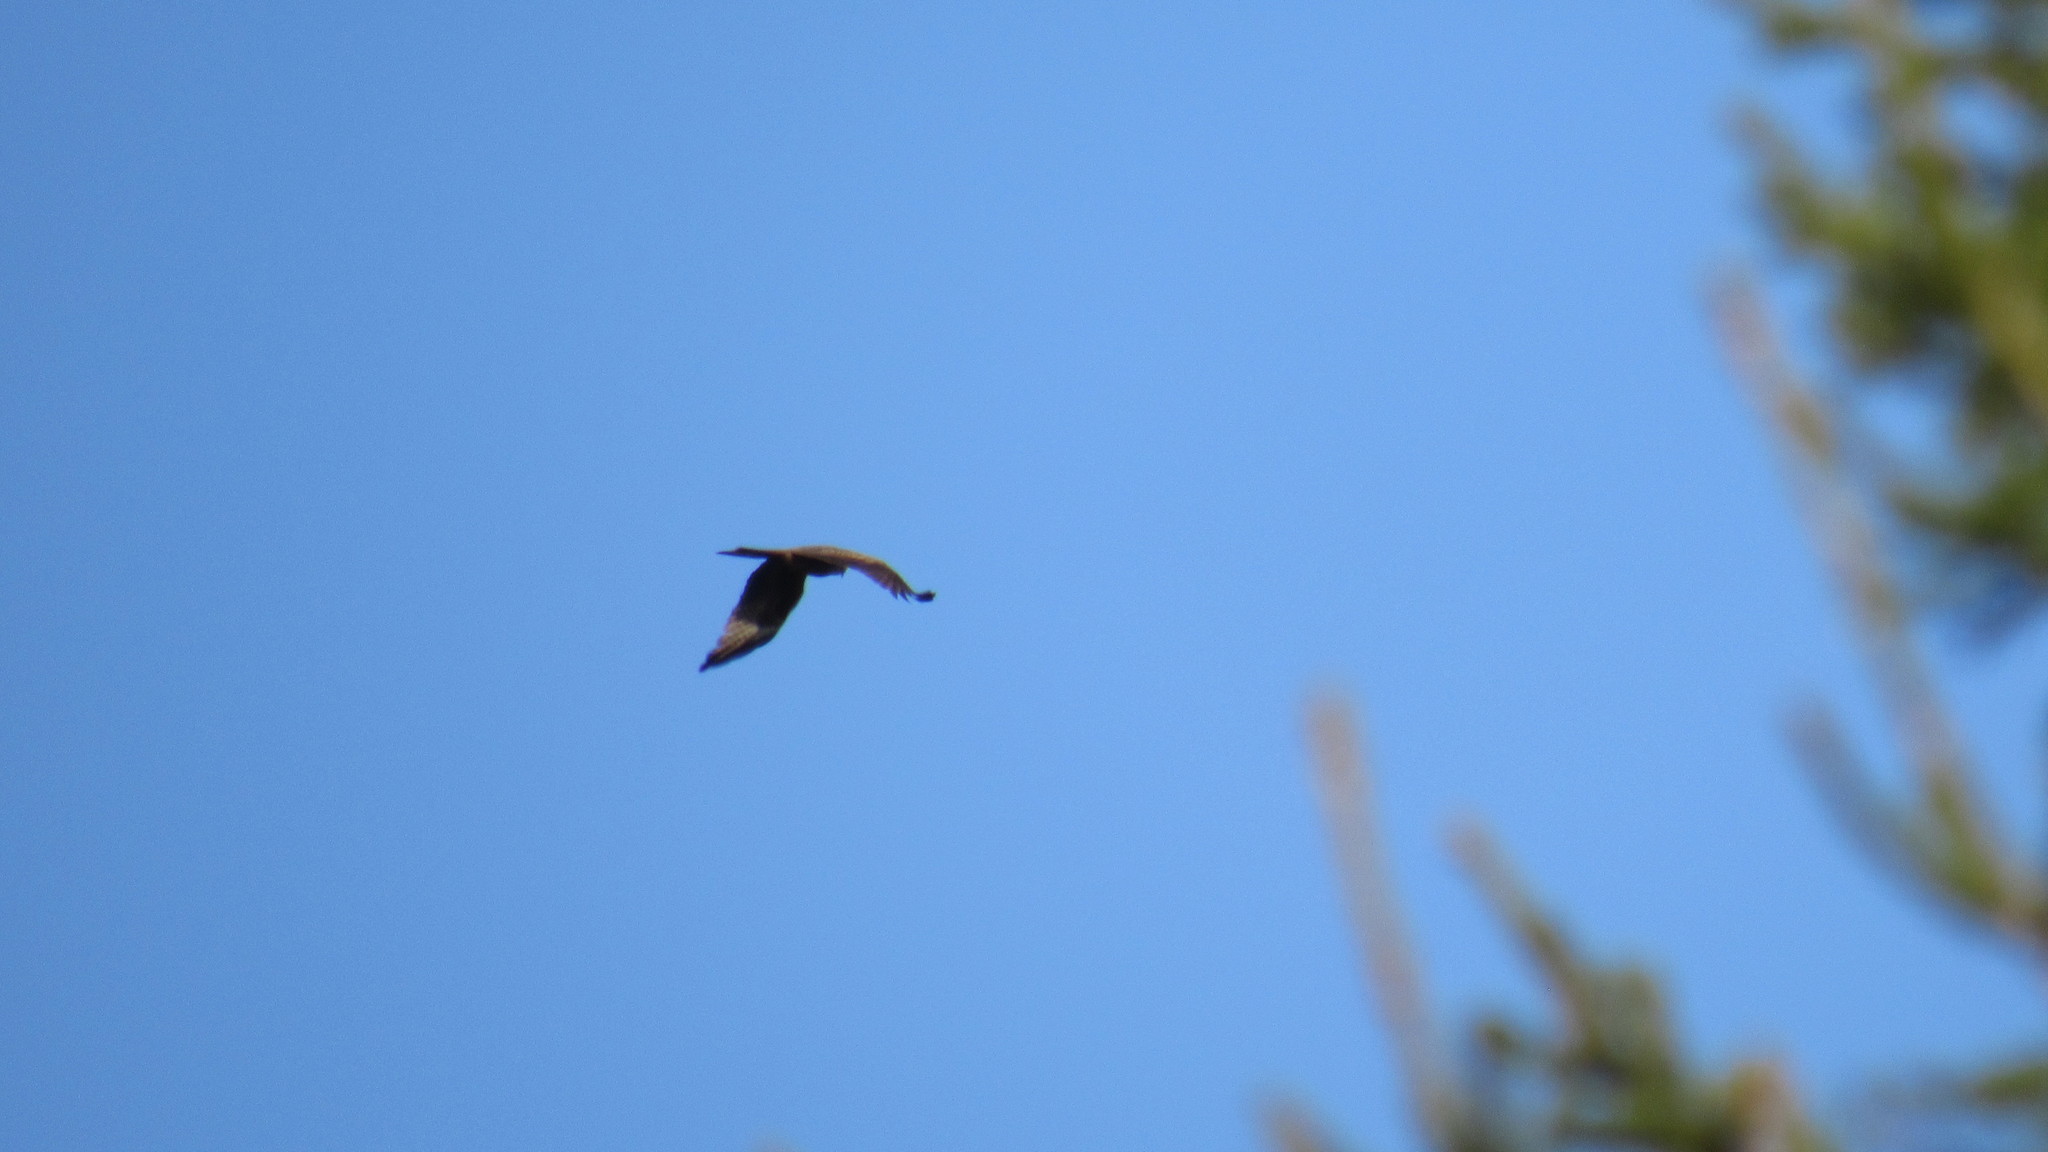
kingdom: Animalia
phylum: Chordata
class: Aves
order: Accipitriformes
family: Accipitridae
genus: Milvus
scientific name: Milvus migrans
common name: Black kite
